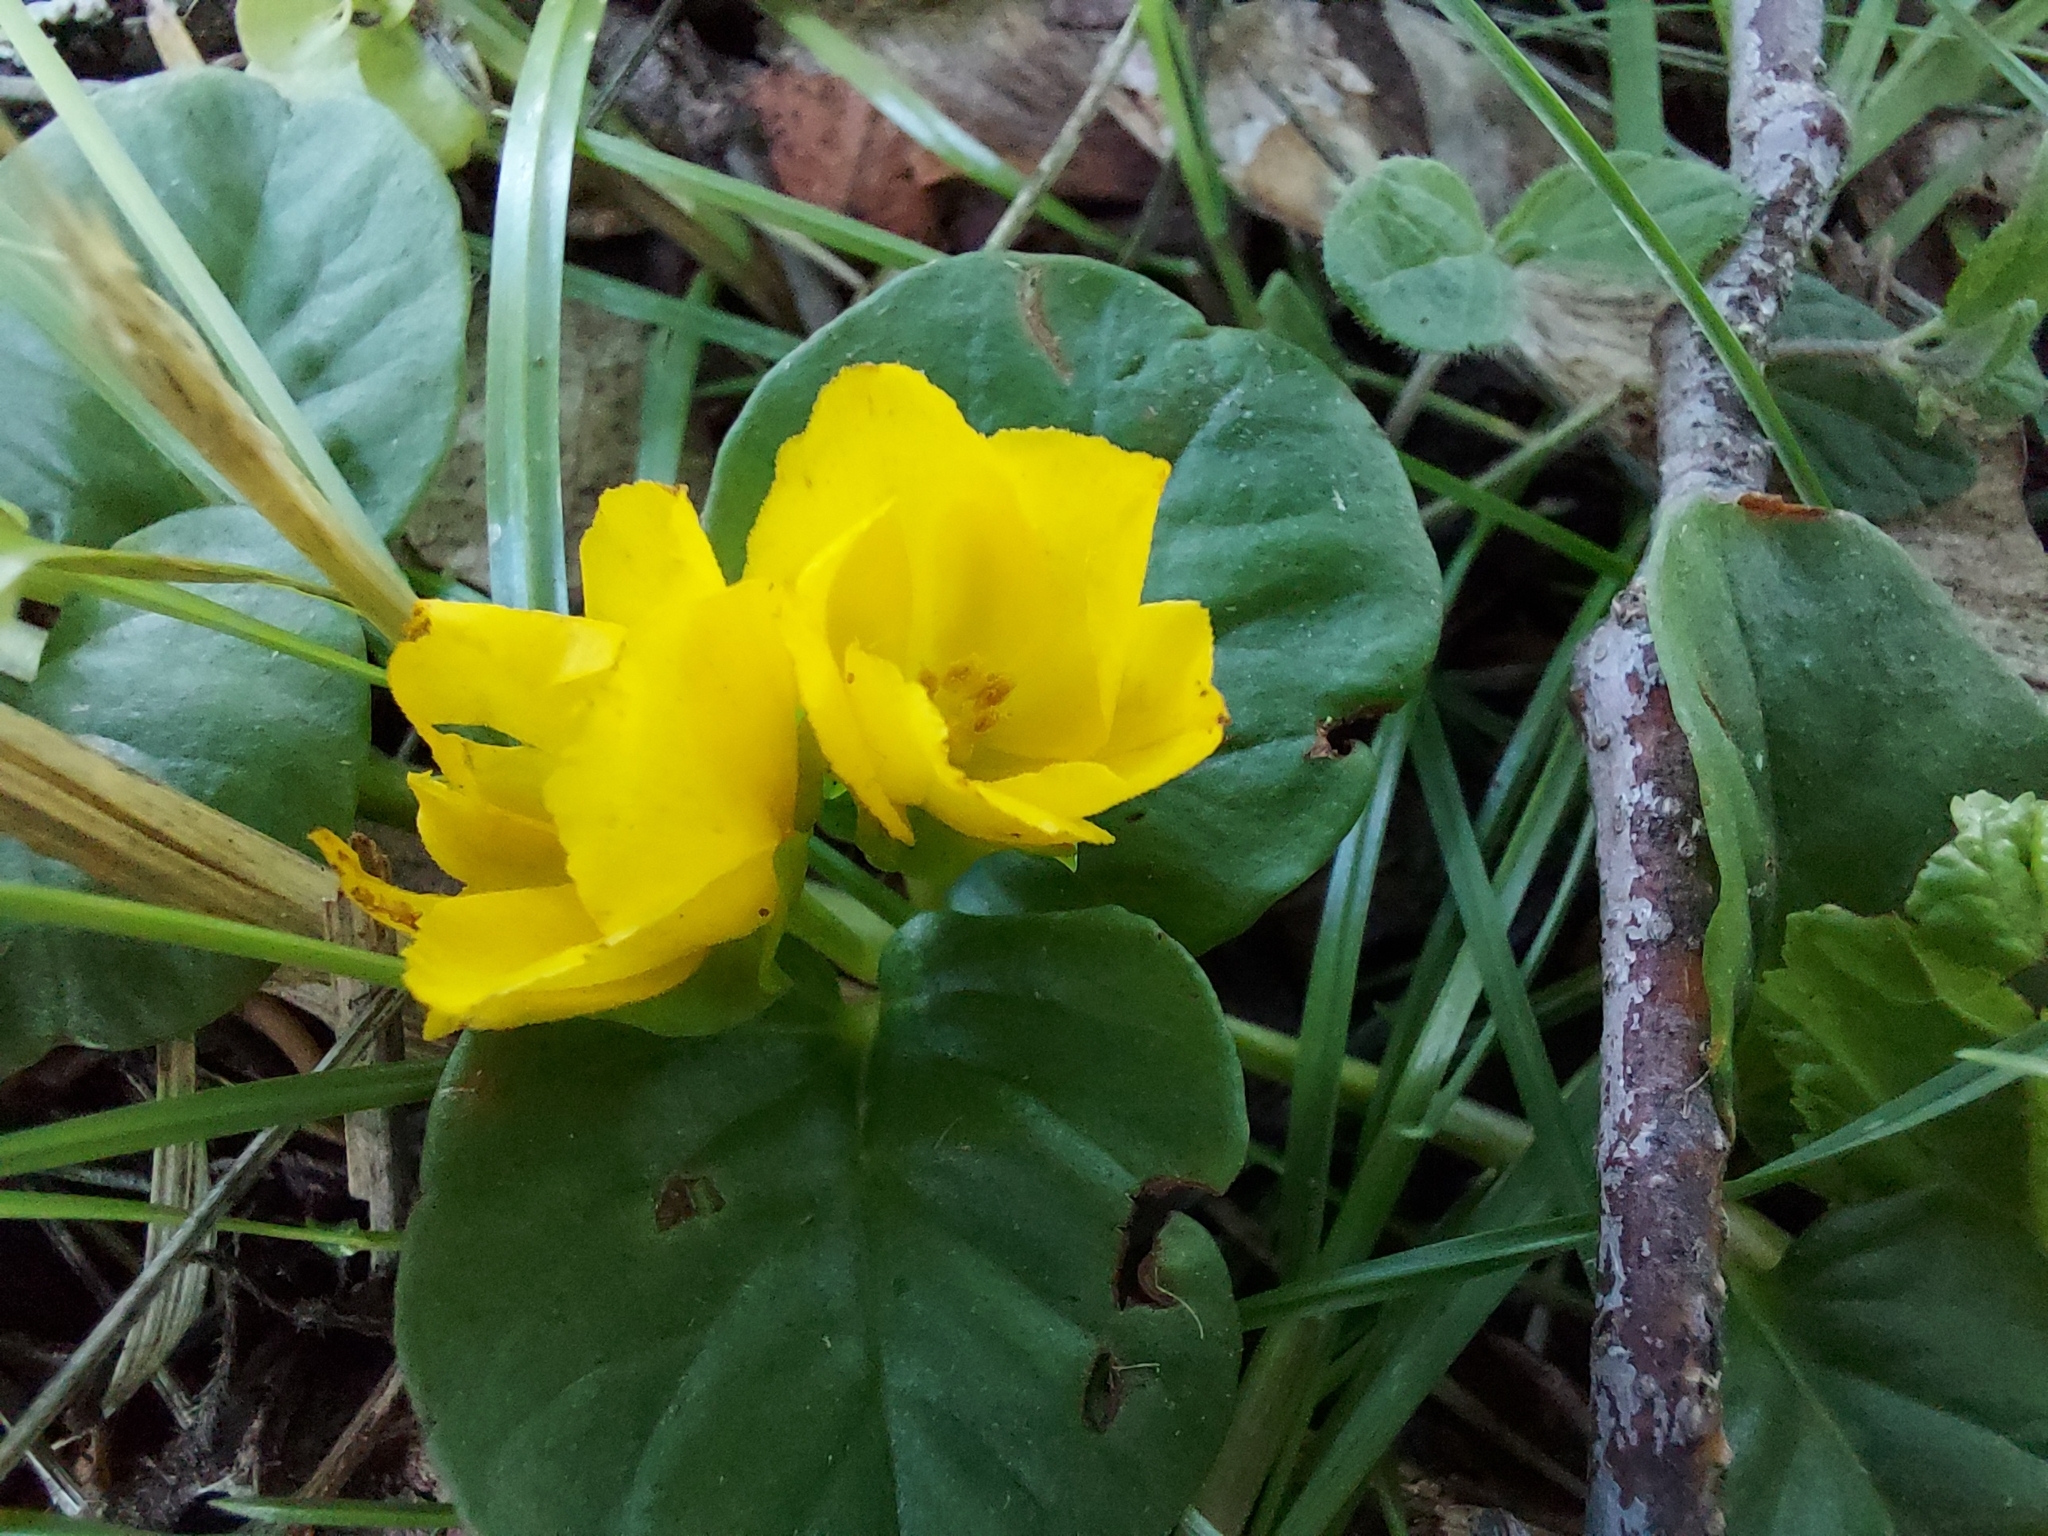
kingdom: Plantae
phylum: Tracheophyta
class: Magnoliopsida
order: Ericales
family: Primulaceae
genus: Lysimachia
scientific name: Lysimachia nummularia
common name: Moneywort
